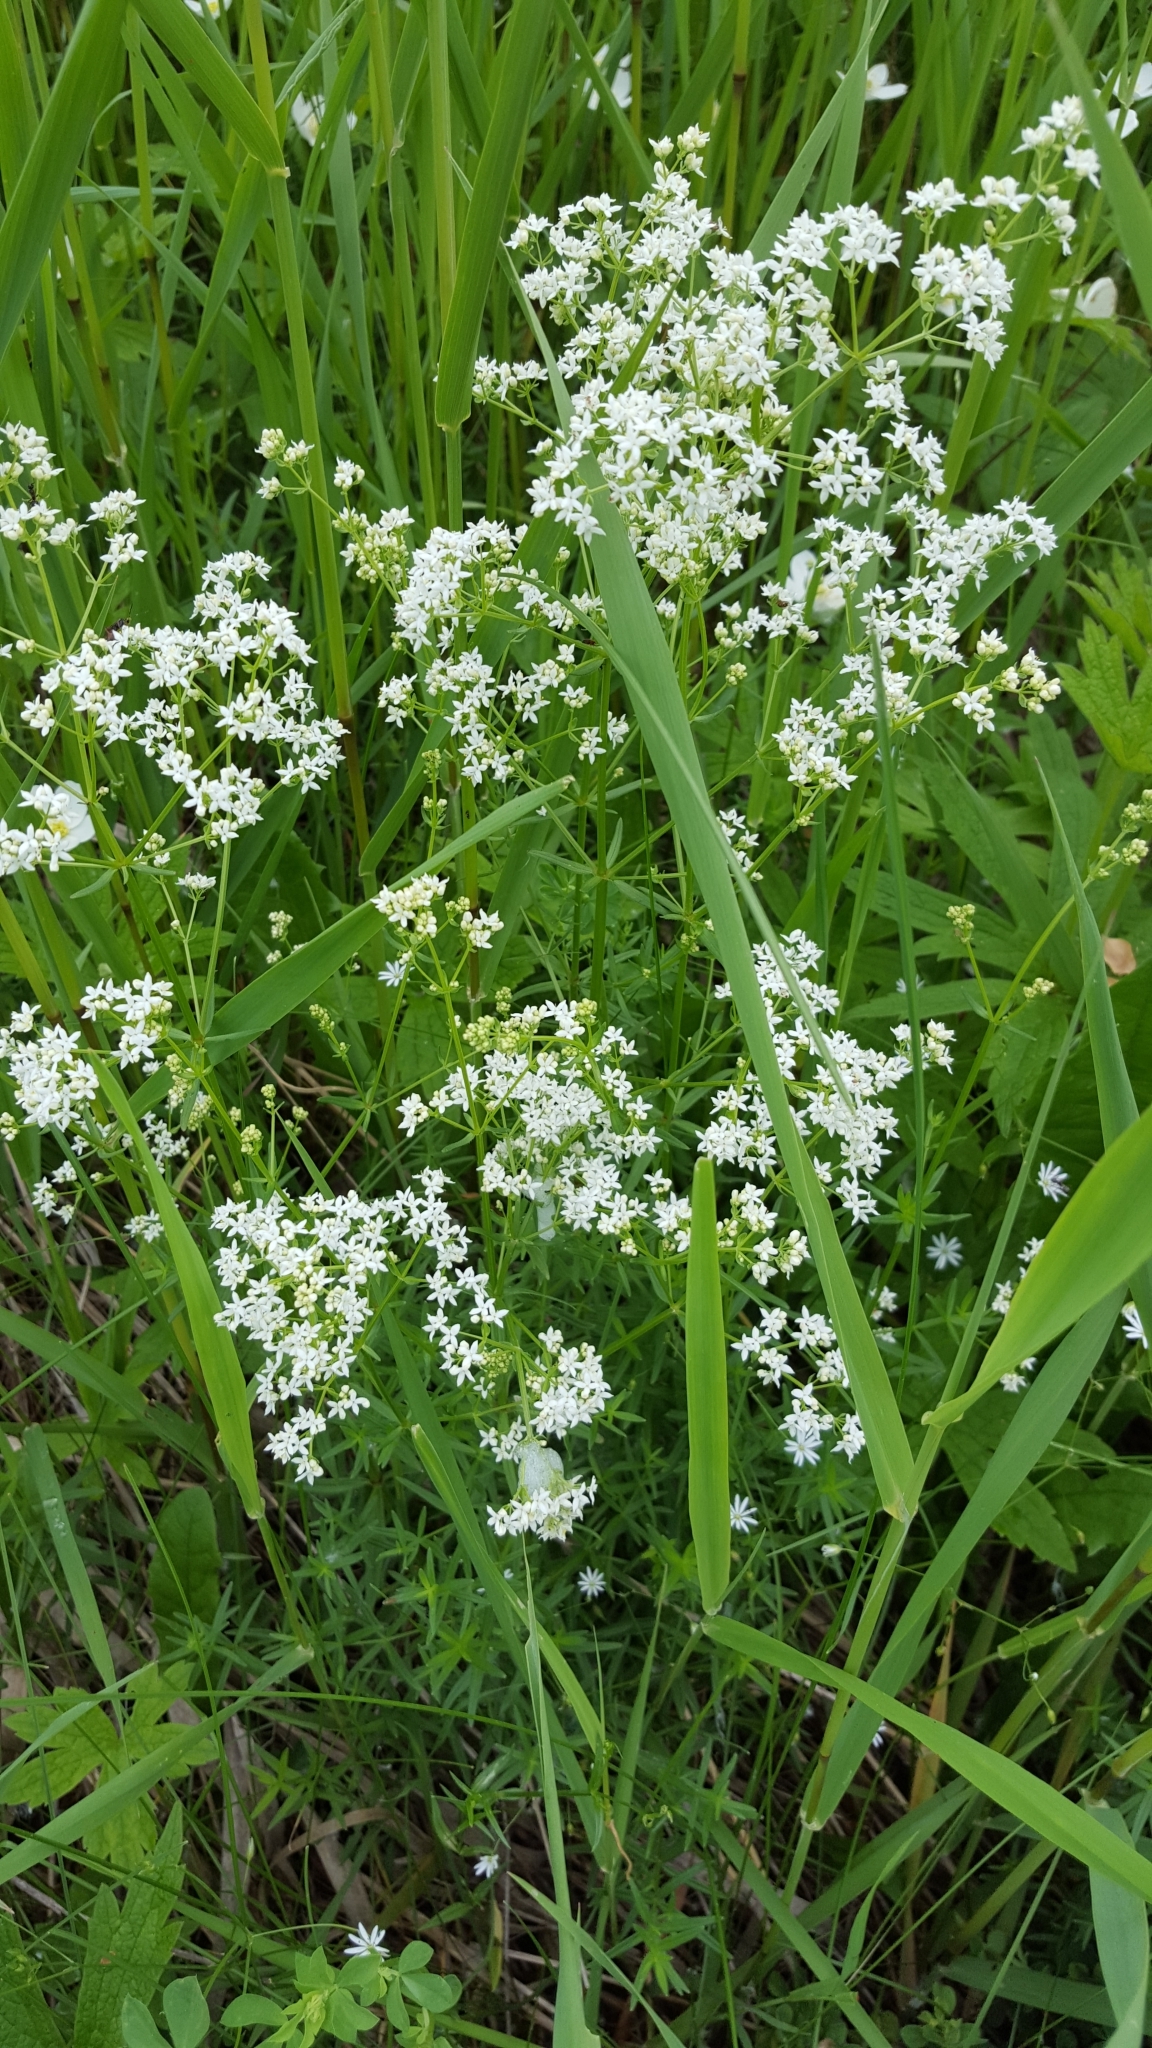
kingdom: Plantae
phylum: Tracheophyta
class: Magnoliopsida
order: Gentianales
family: Rubiaceae
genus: Galium
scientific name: Galium boreale
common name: Northern bedstraw
